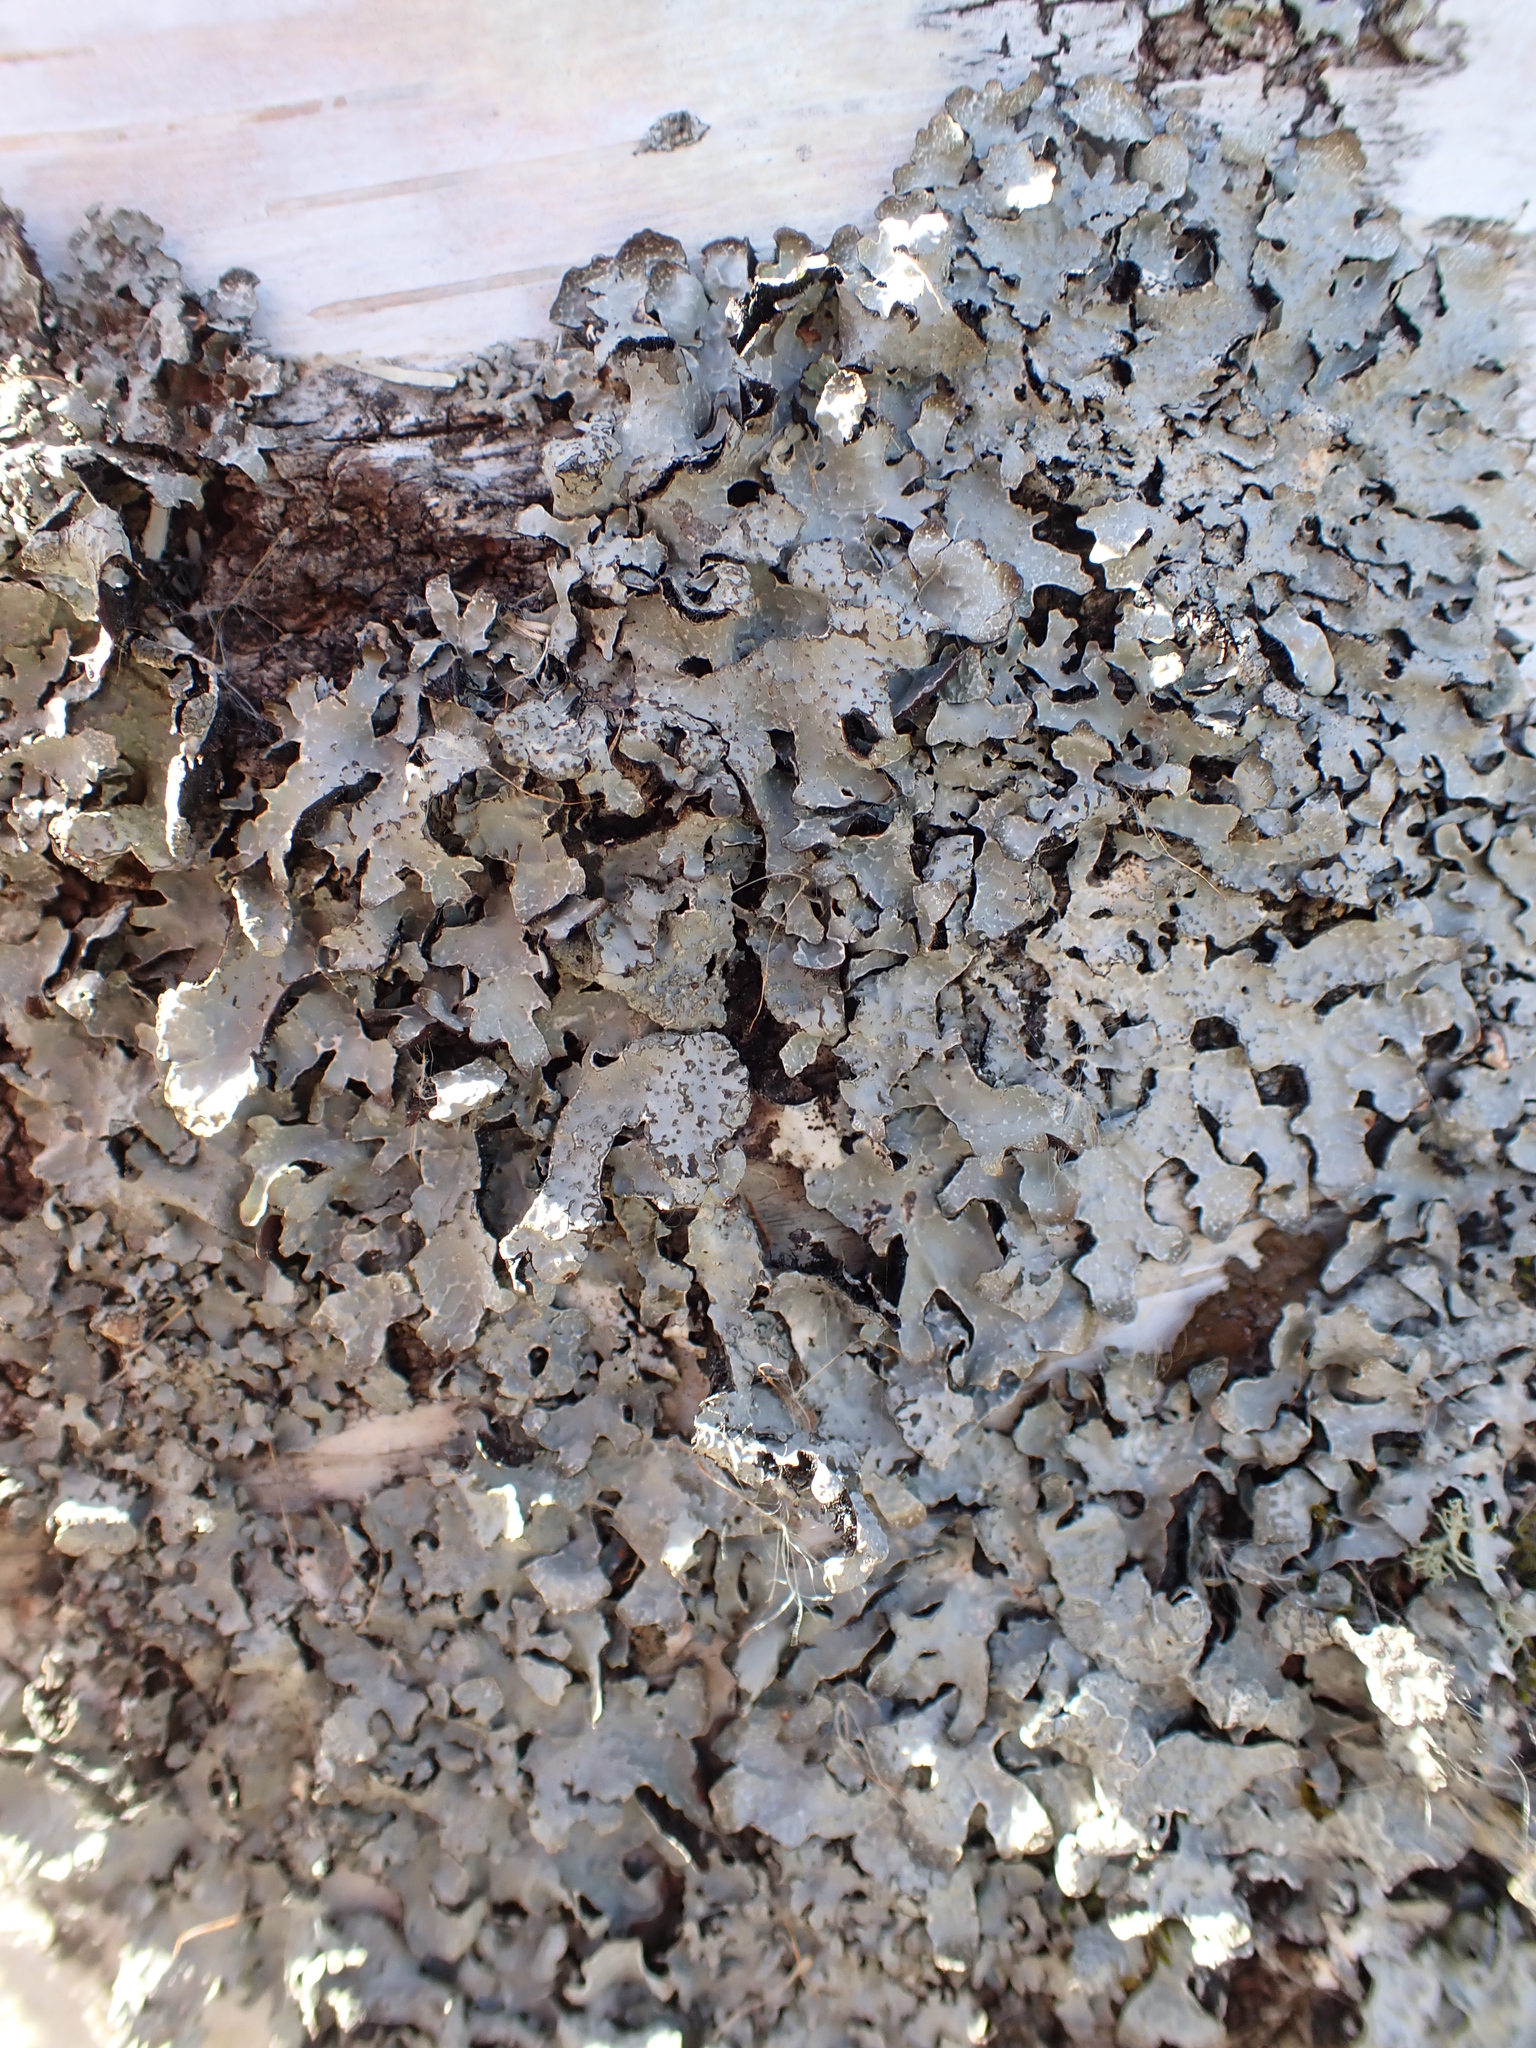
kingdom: Fungi
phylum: Ascomycota
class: Lecanoromycetes
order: Lecanorales
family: Parmeliaceae
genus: Parmelia
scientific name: Parmelia sulcata
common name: Netted shield lichen
